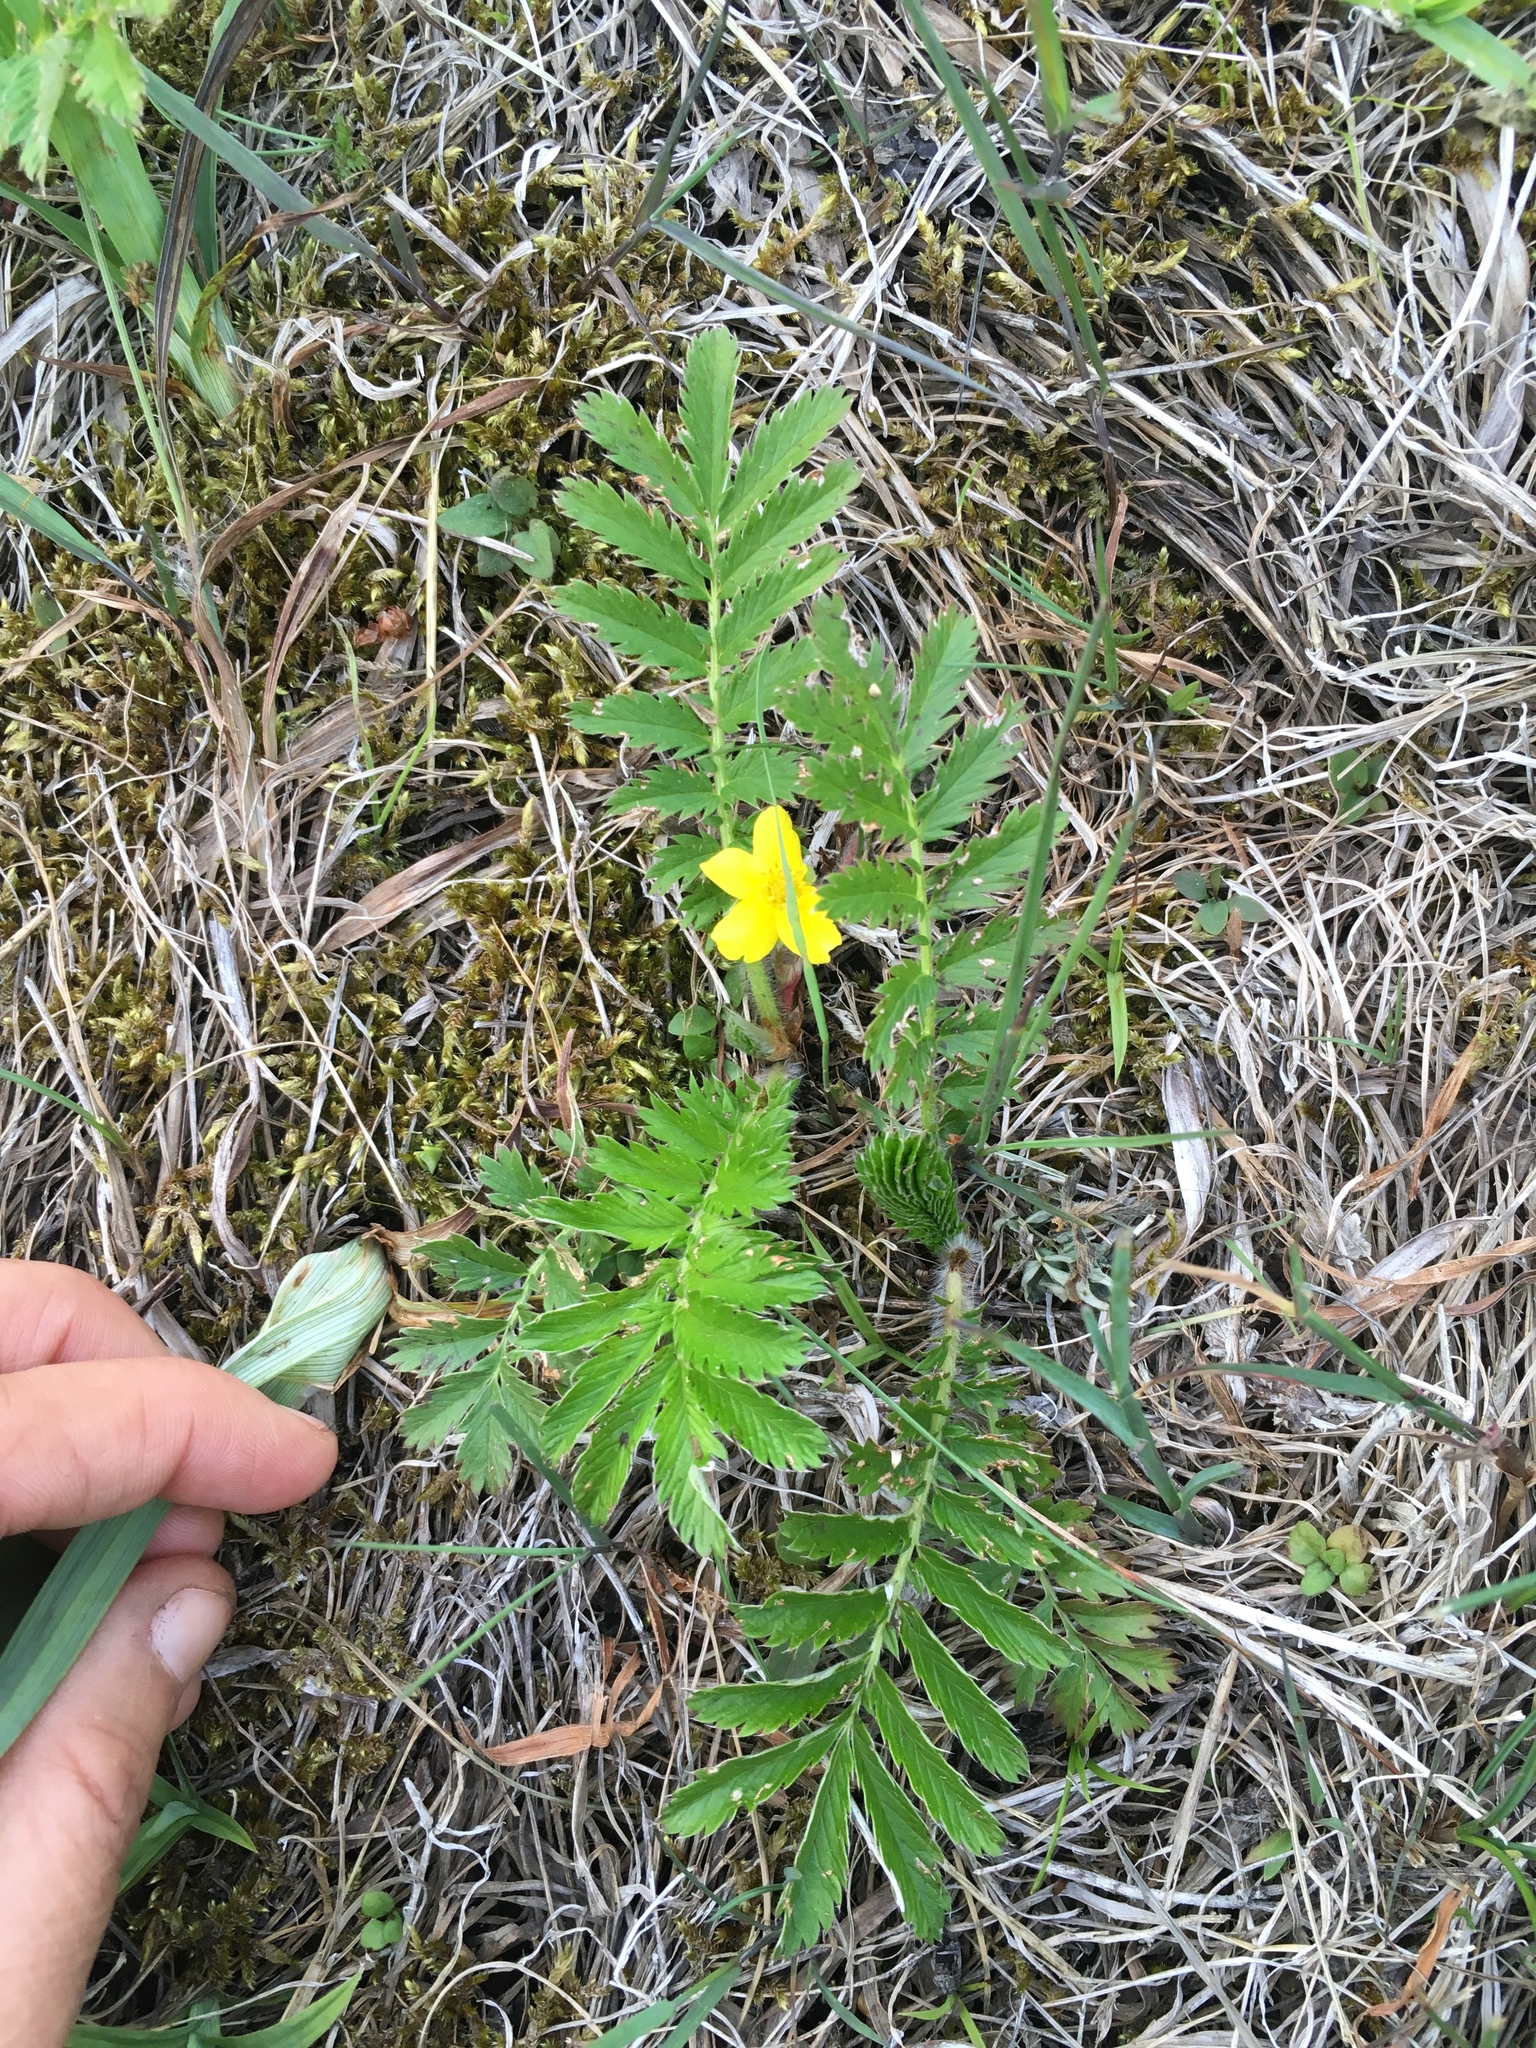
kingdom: Plantae
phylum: Tracheophyta
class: Magnoliopsida
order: Rosales
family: Rosaceae
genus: Argentina
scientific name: Argentina anserina
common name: Common silverweed
